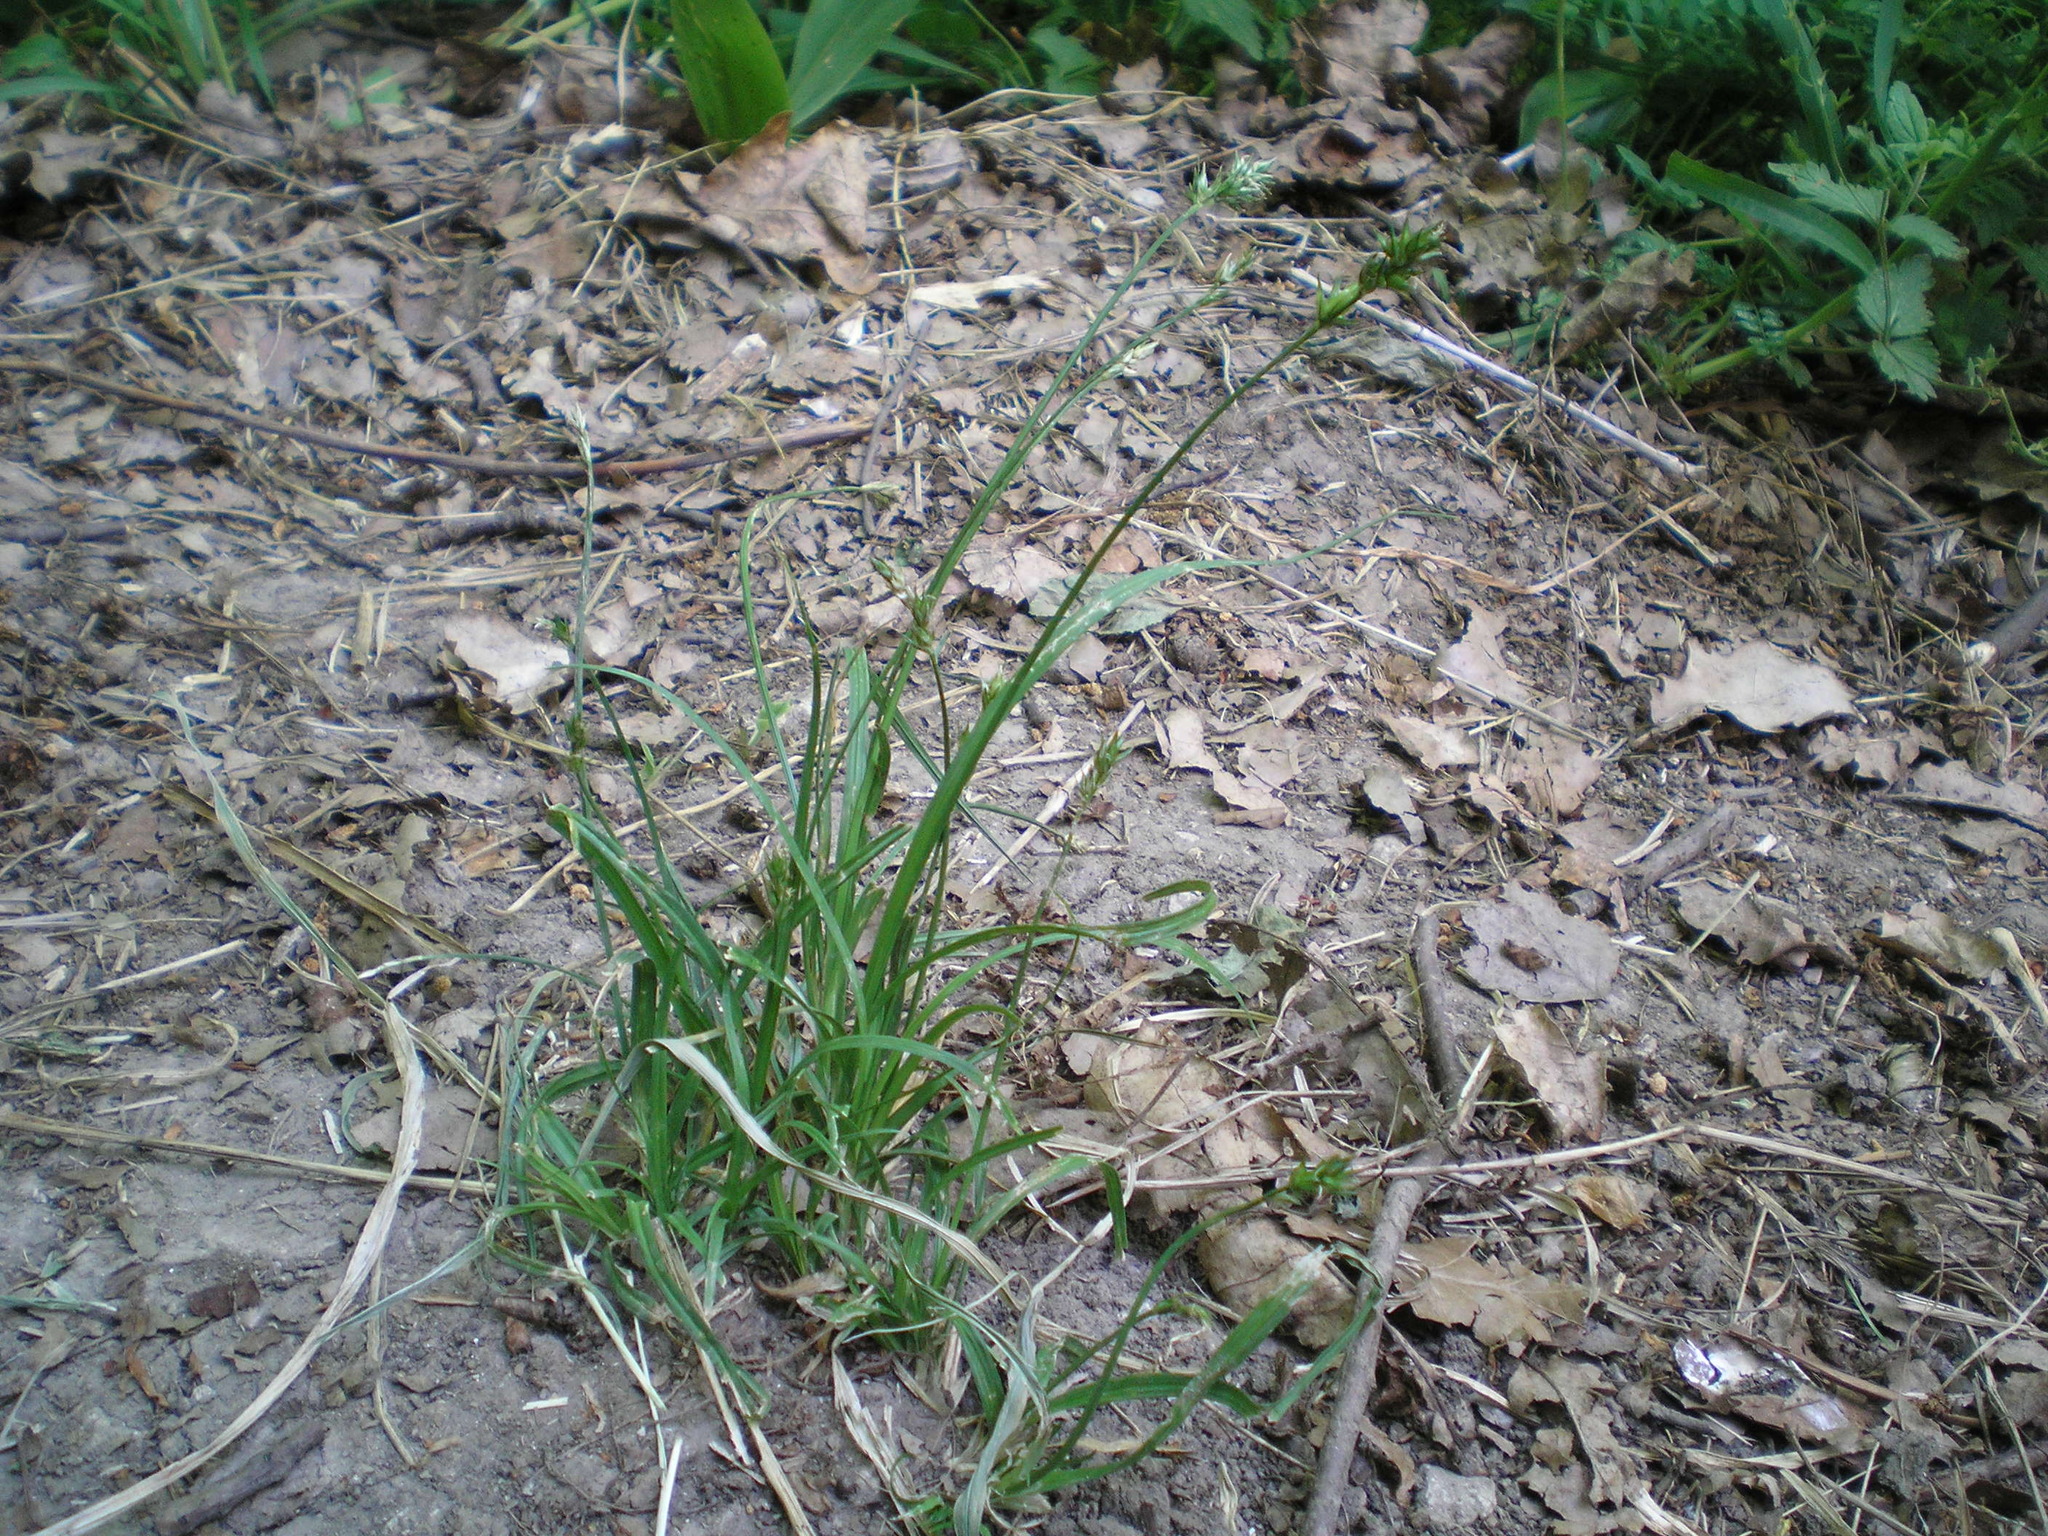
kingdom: Plantae
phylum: Tracheophyta
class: Liliopsida
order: Poales
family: Cyperaceae
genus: Carex
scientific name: Carex spicata
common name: Spiked sedge
